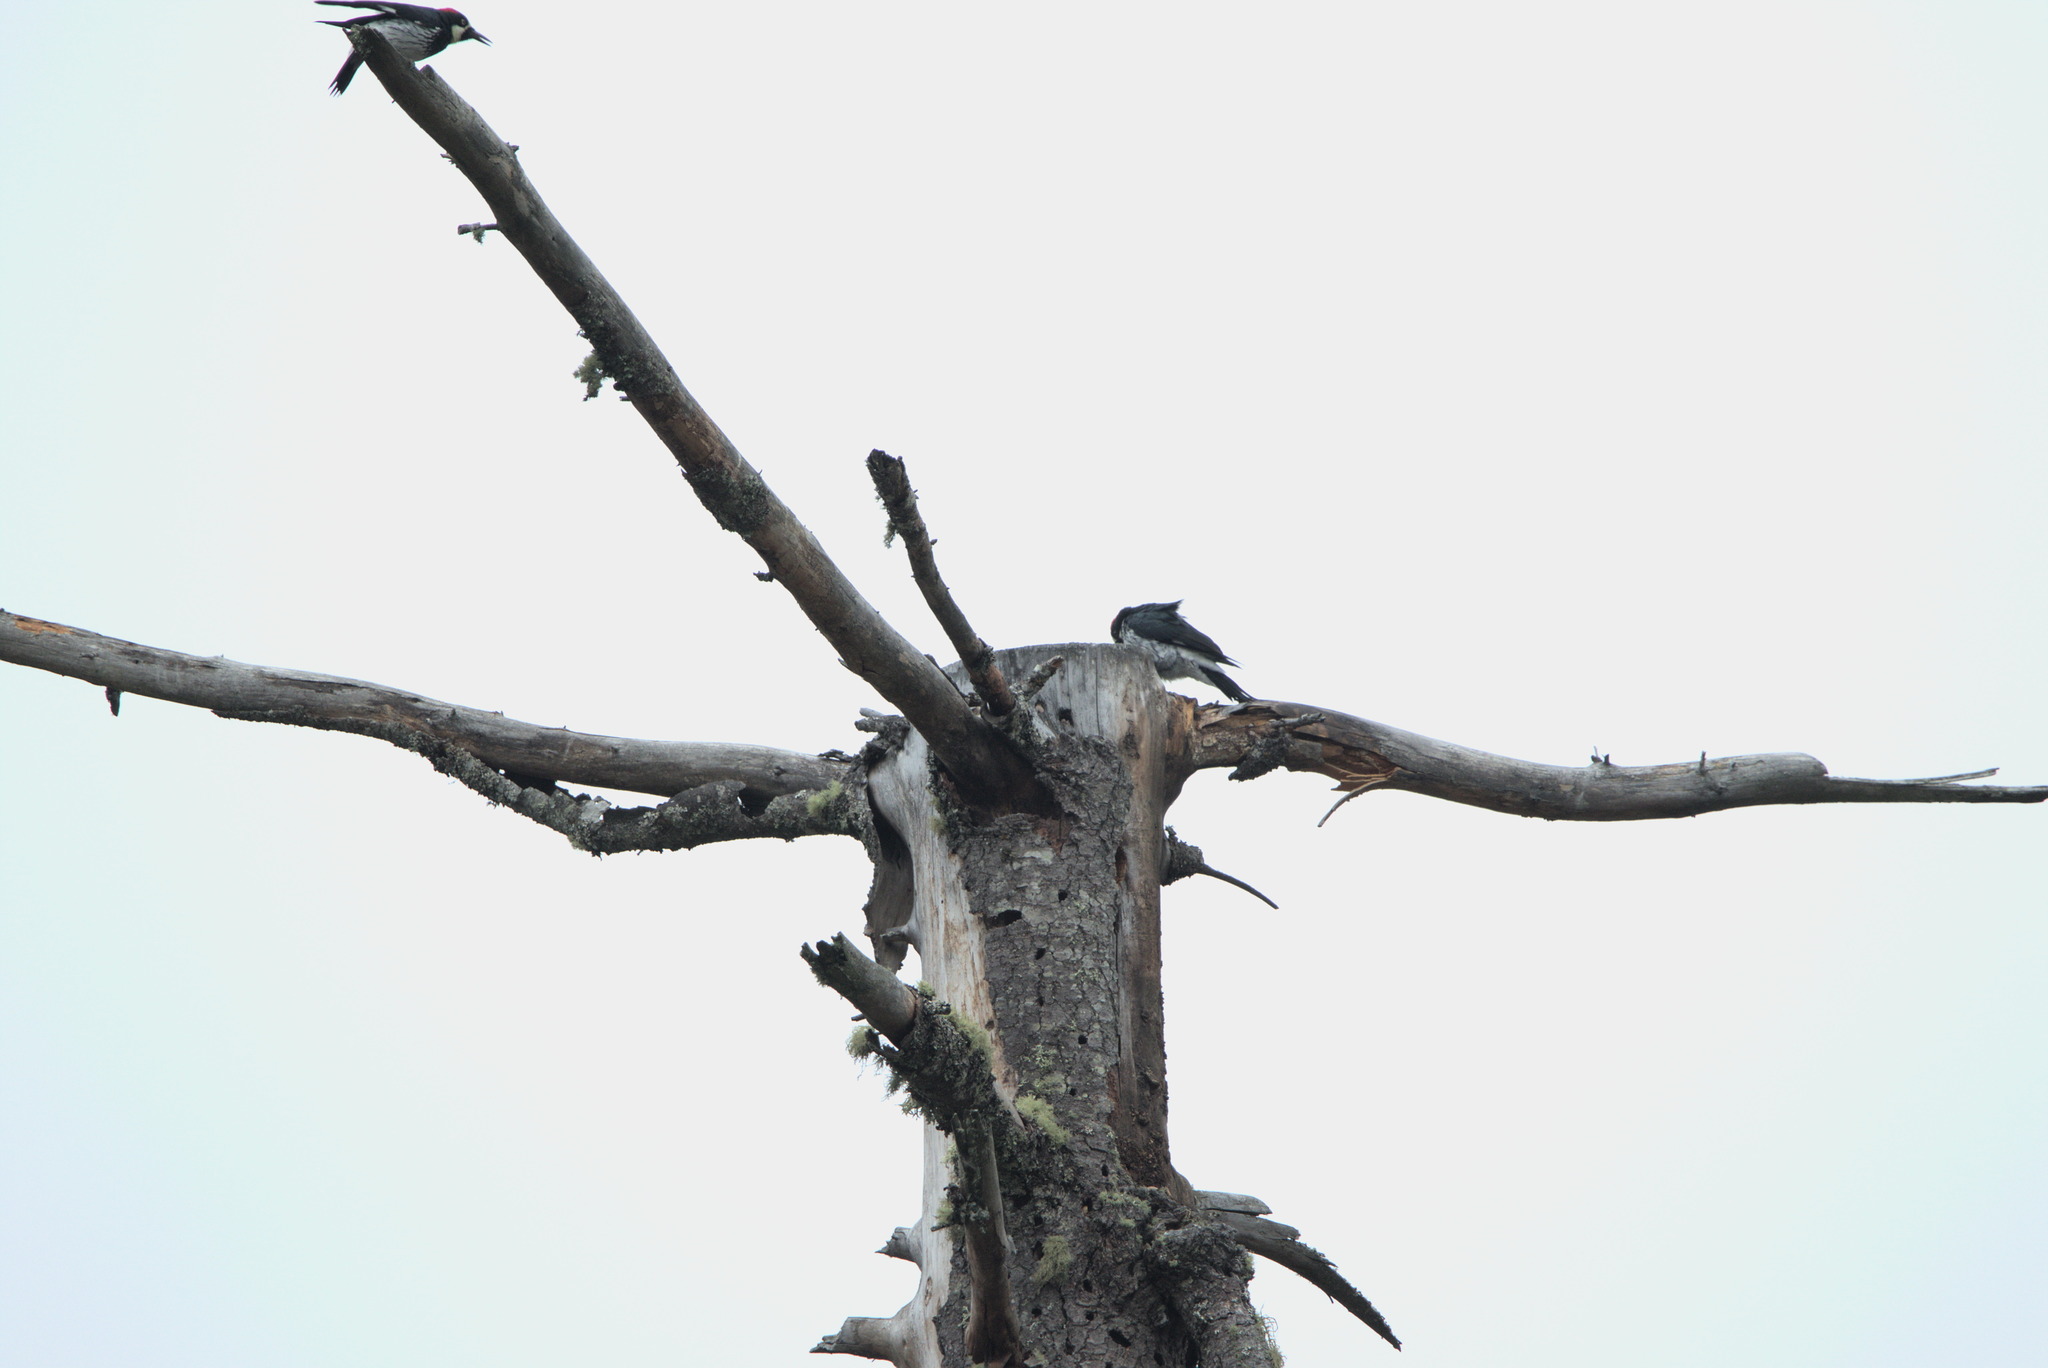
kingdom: Animalia
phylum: Chordata
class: Aves
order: Piciformes
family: Picidae
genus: Melanerpes
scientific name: Melanerpes formicivorus
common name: Acorn woodpecker
